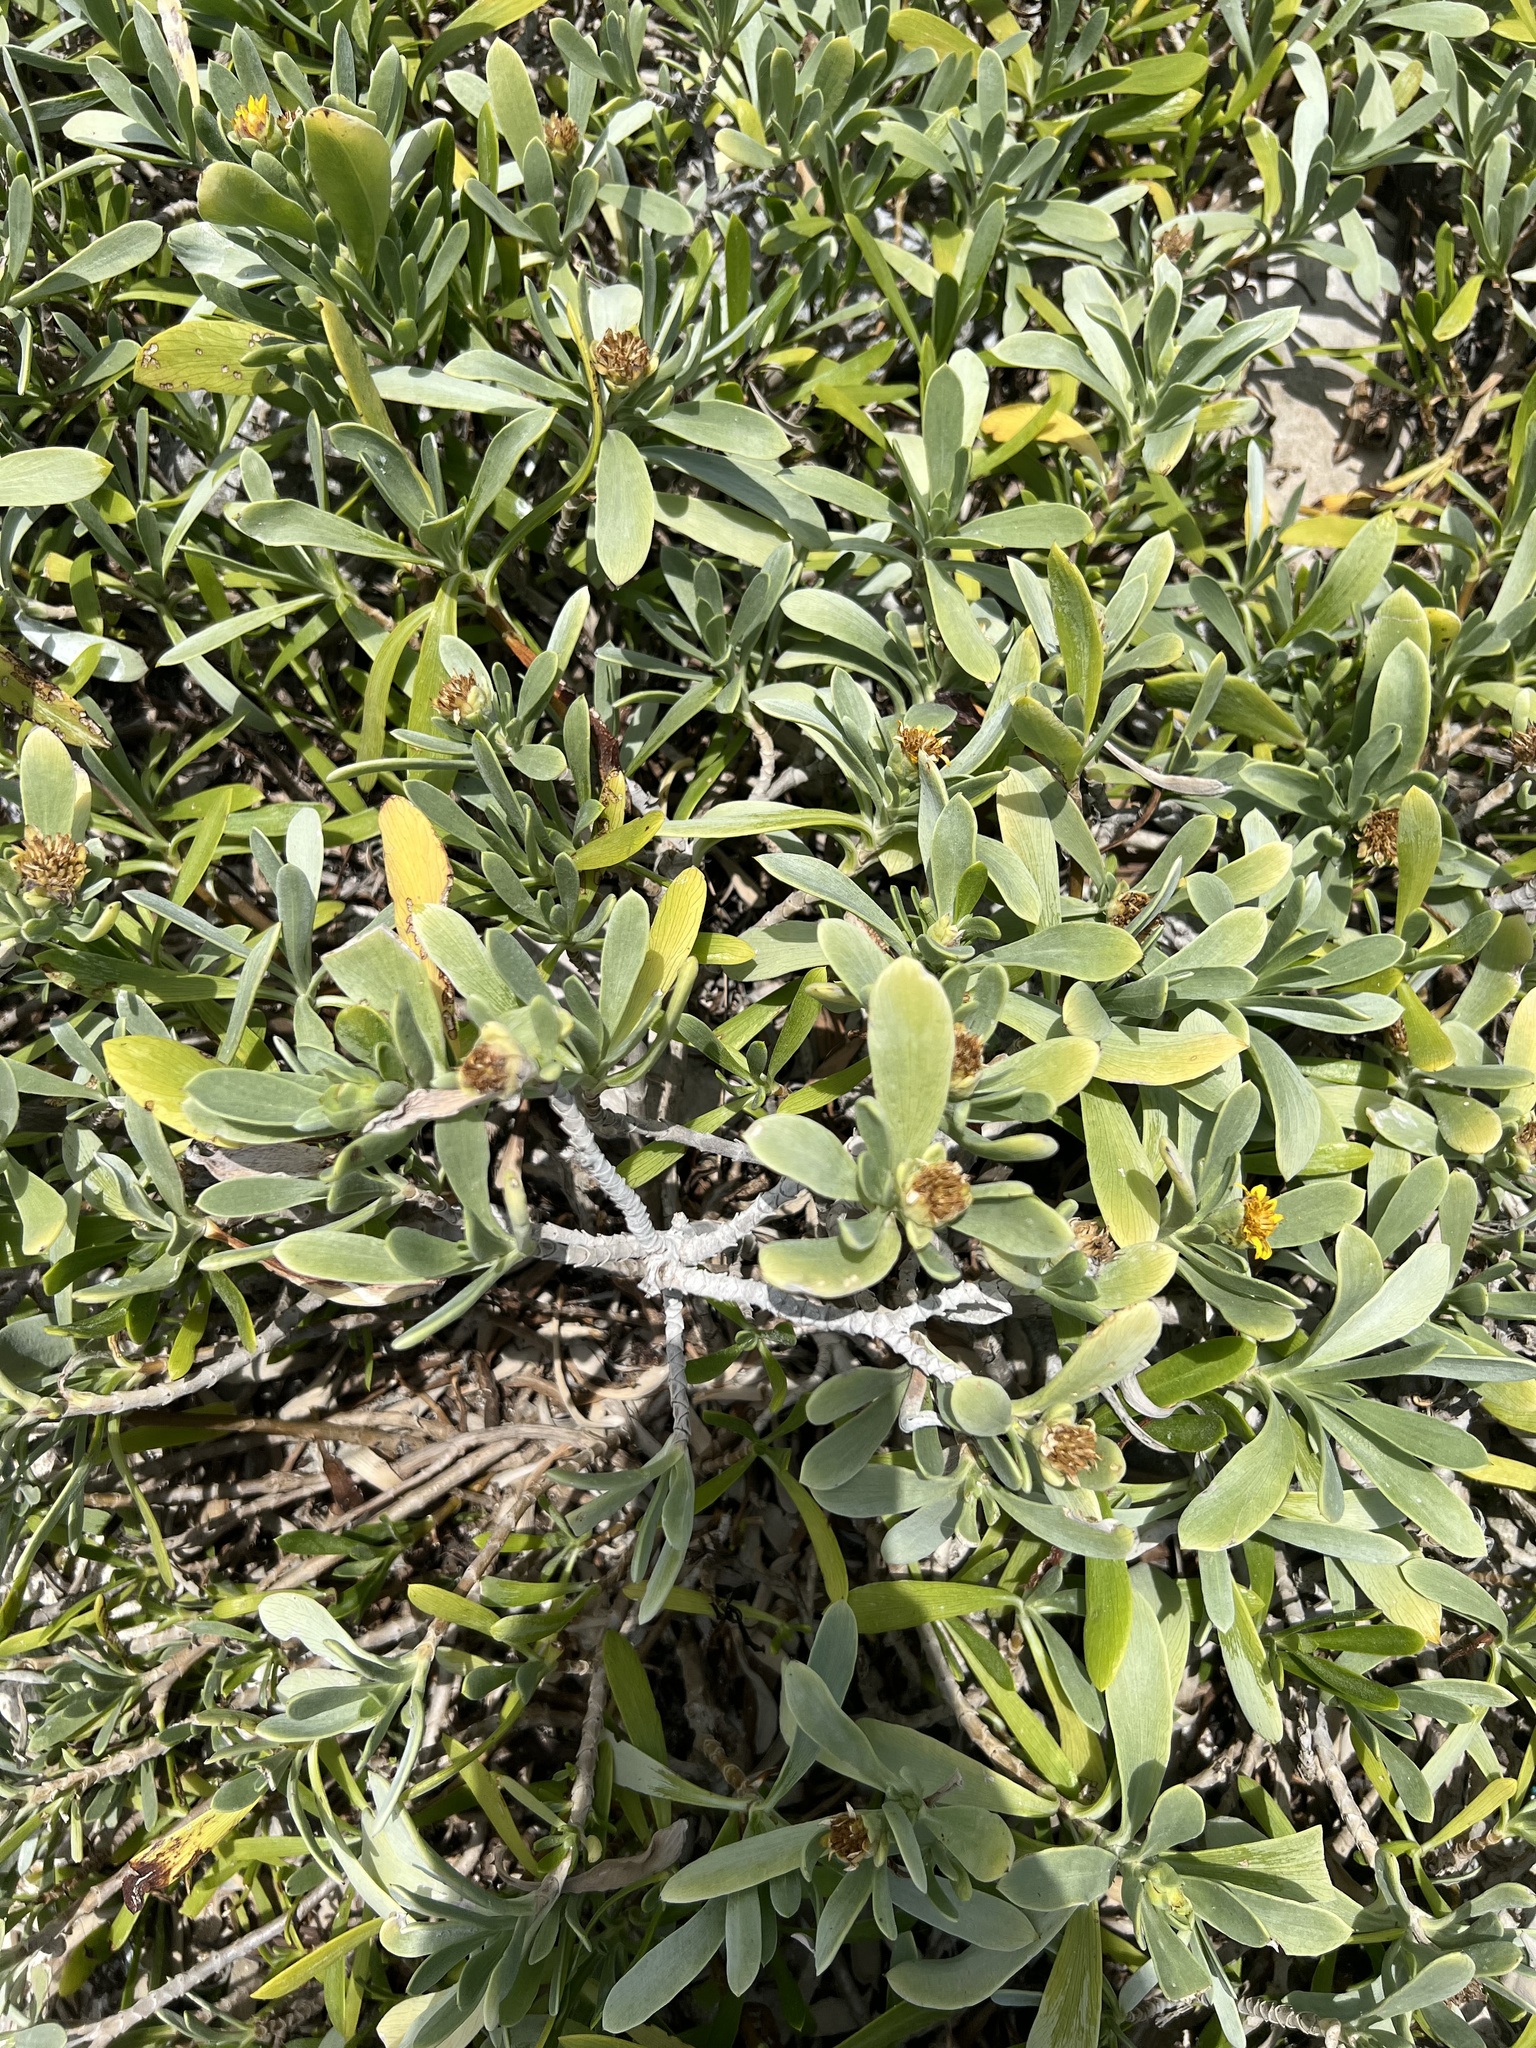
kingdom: Plantae
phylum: Tracheophyta
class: Magnoliopsida
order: Asterales
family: Asteraceae
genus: Borrichia
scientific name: Borrichia arborescens
